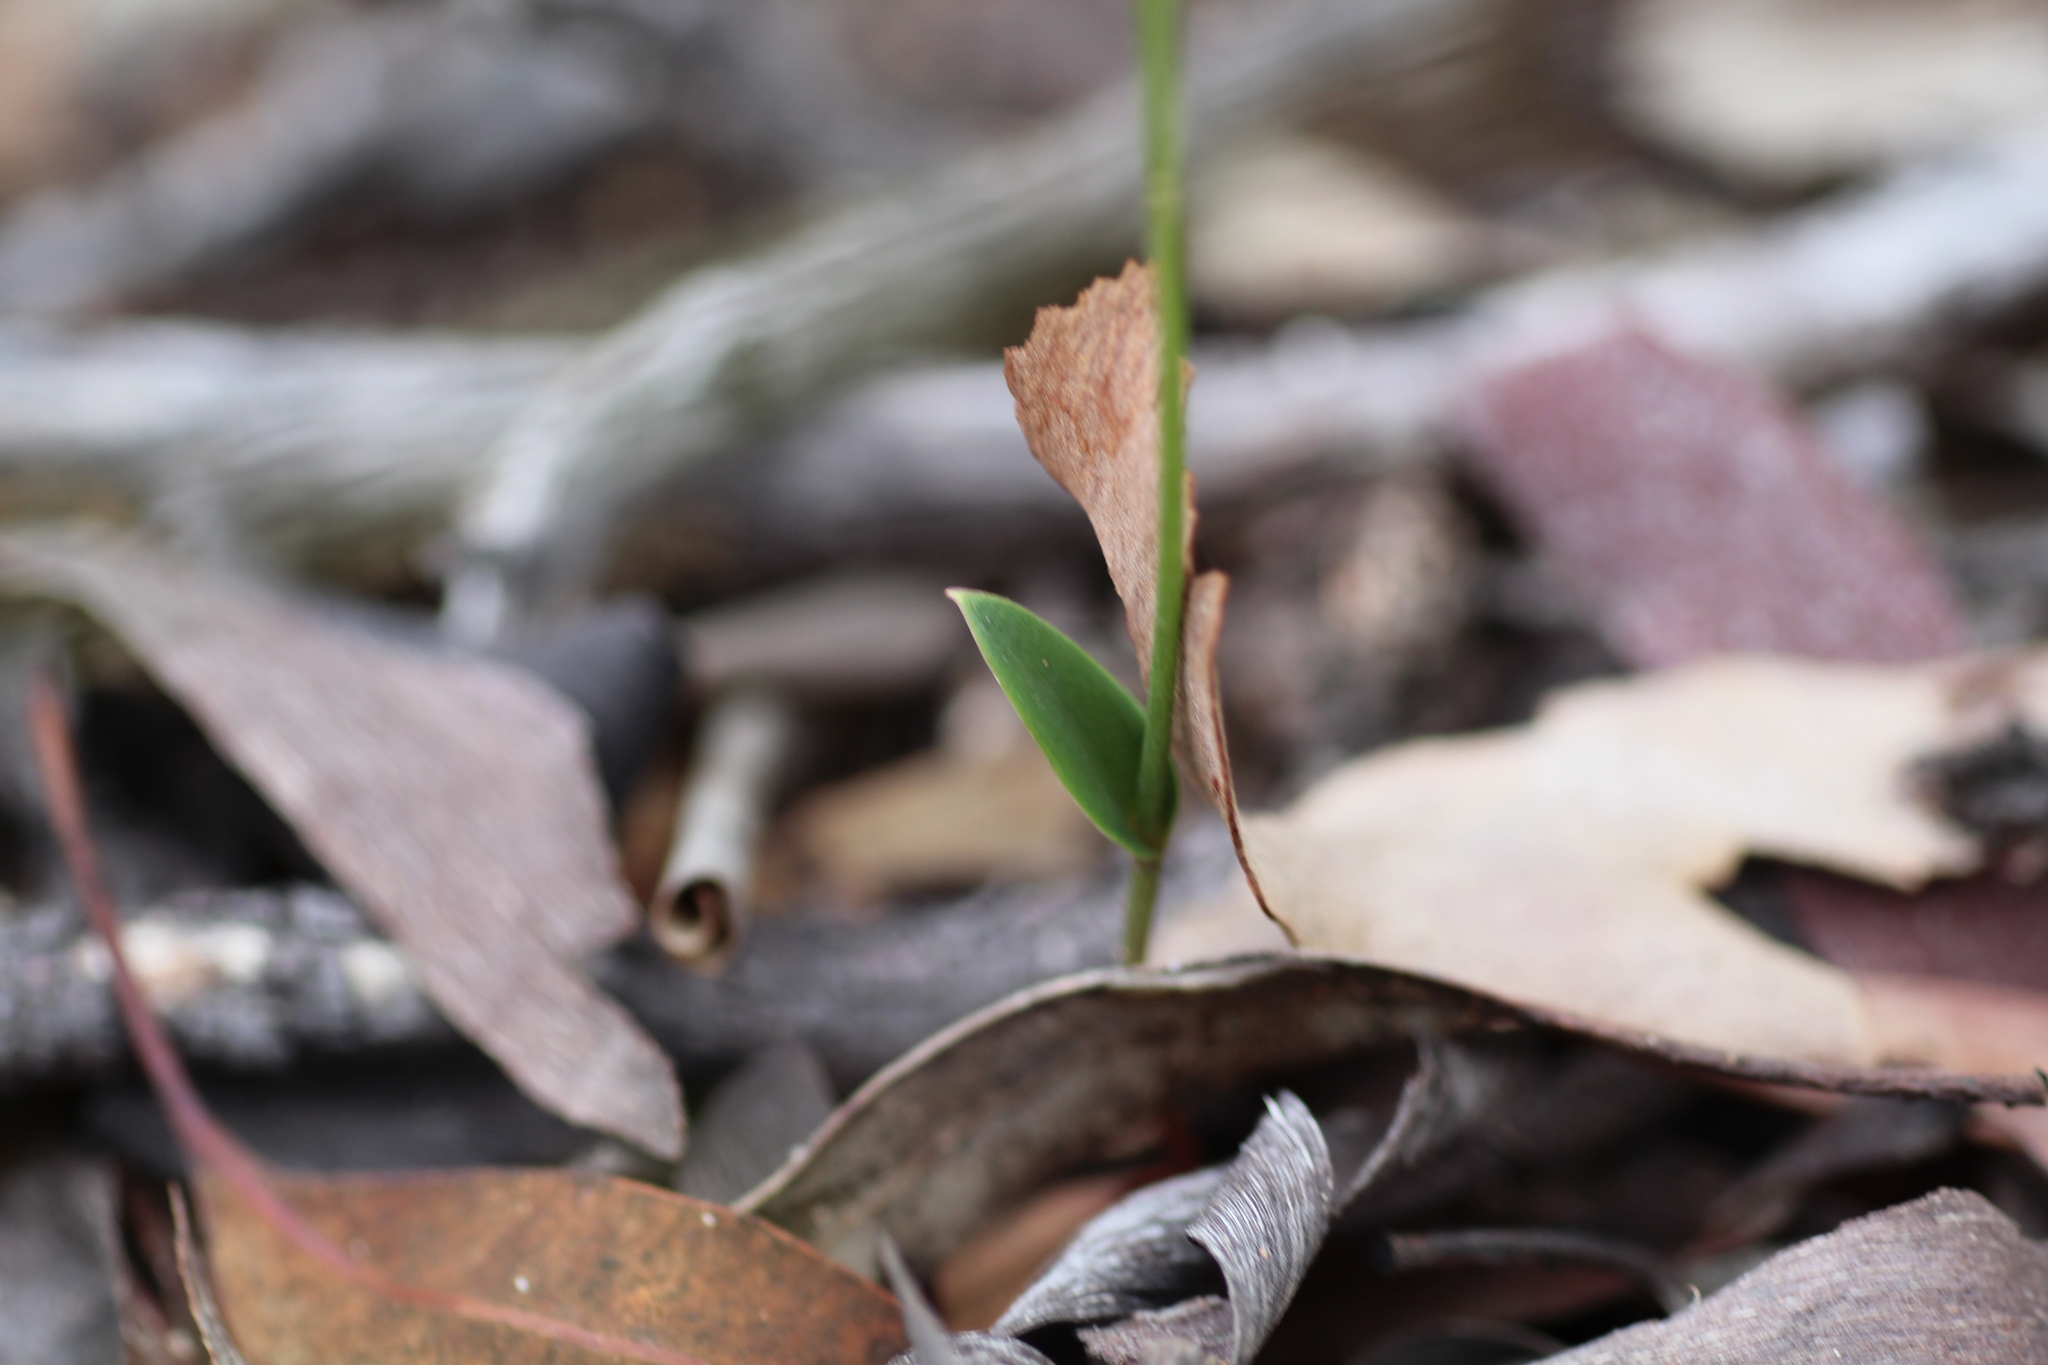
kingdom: Plantae
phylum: Tracheophyta
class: Liliopsida
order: Asparagales
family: Orchidaceae
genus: Eriochilus
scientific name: Eriochilus dilatatus
